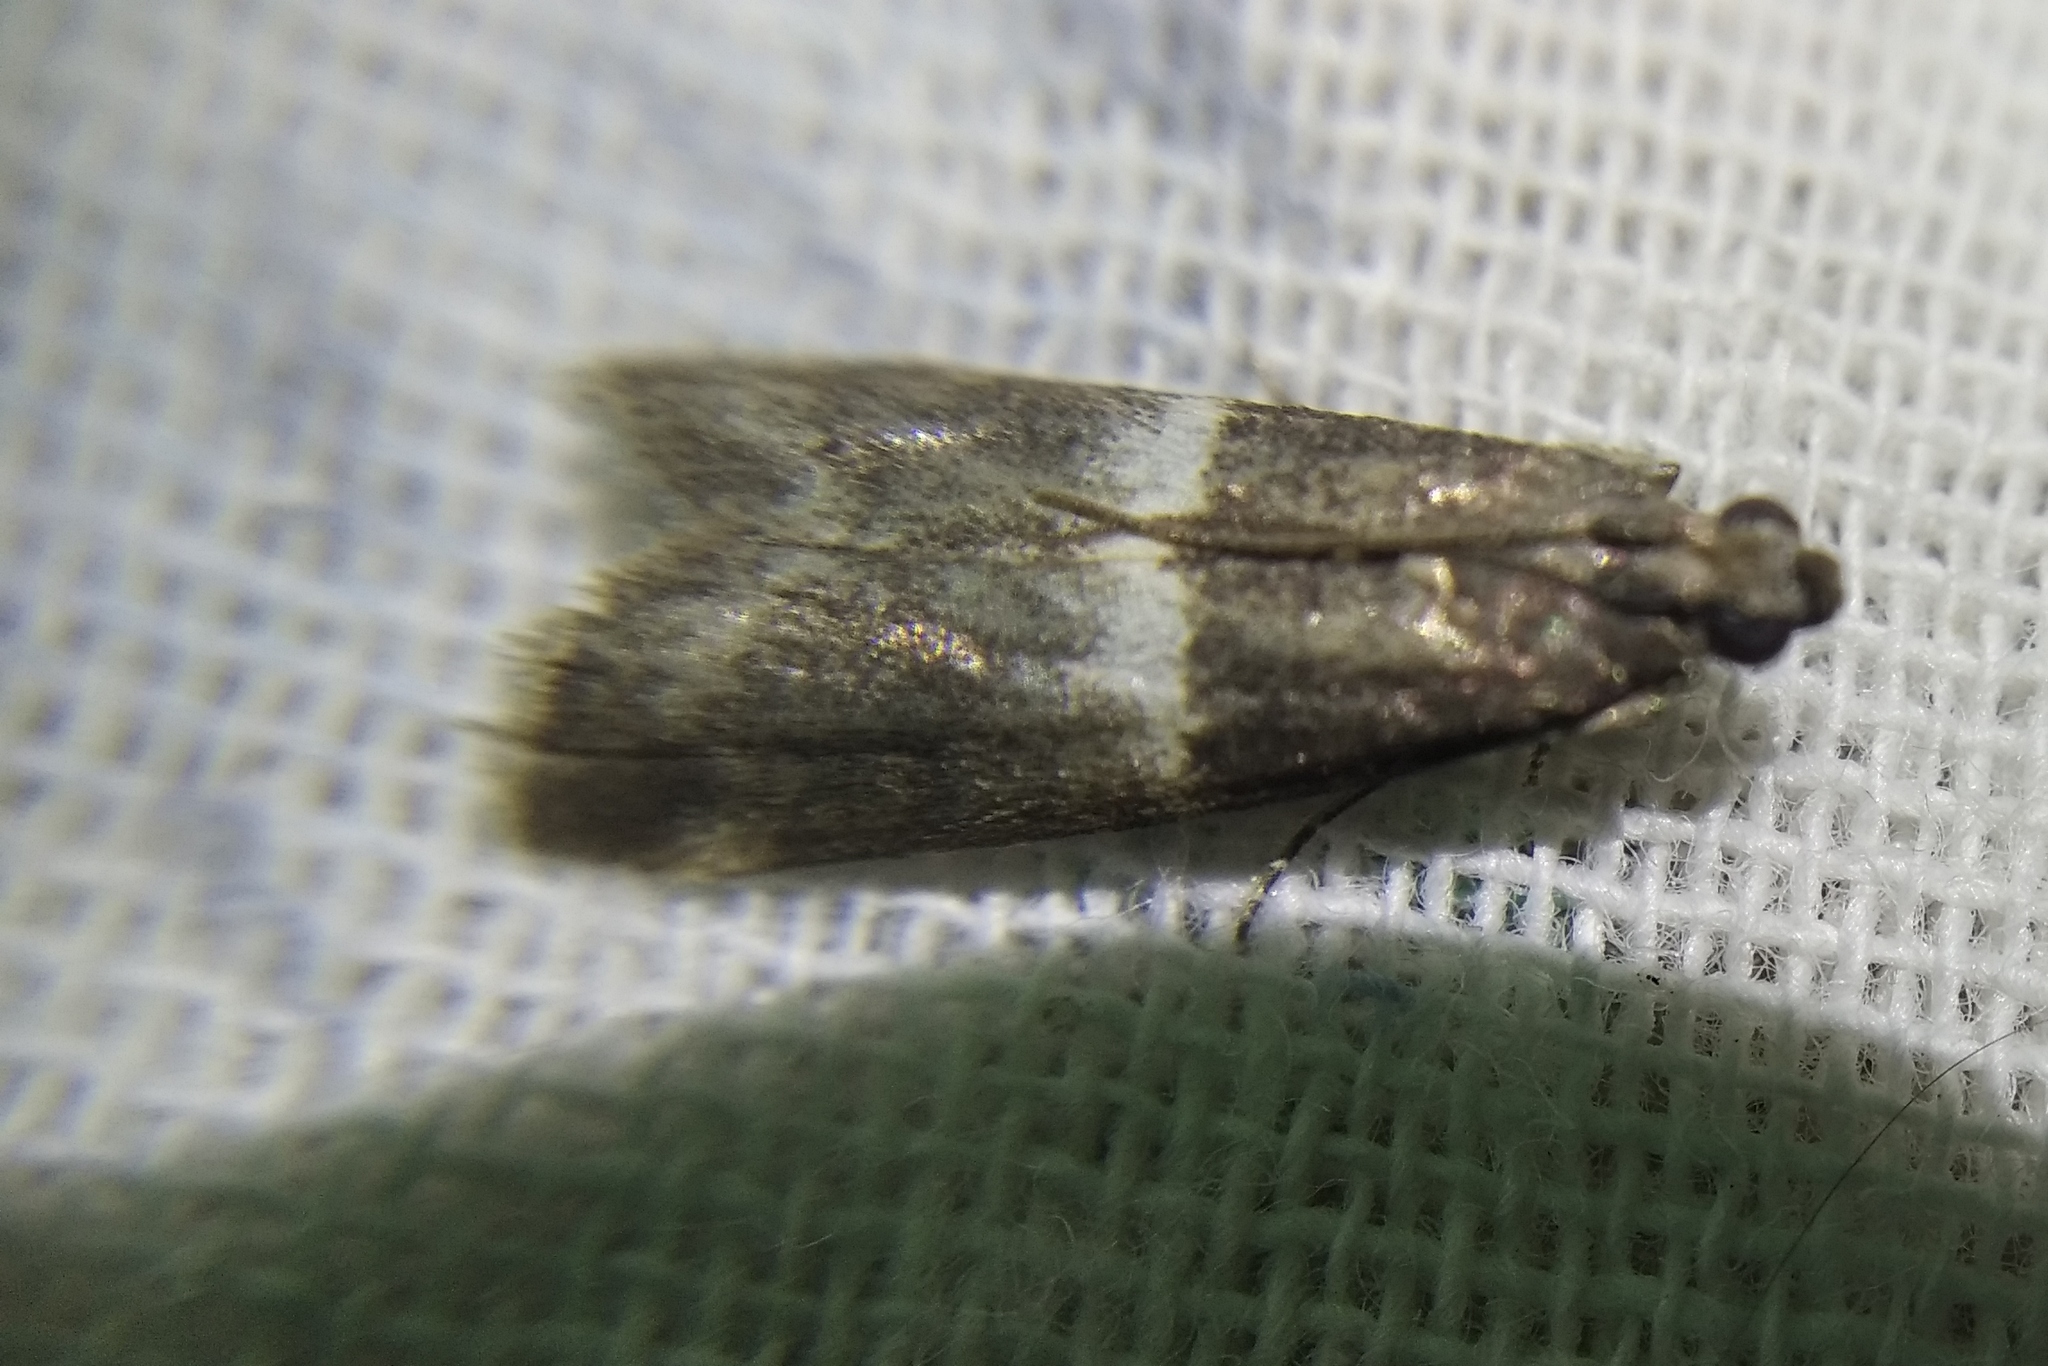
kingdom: Animalia
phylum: Arthropoda
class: Insecta
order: Lepidoptera
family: Pyralidae
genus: Elegia
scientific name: Elegia similella
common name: White-barred knot-horn
